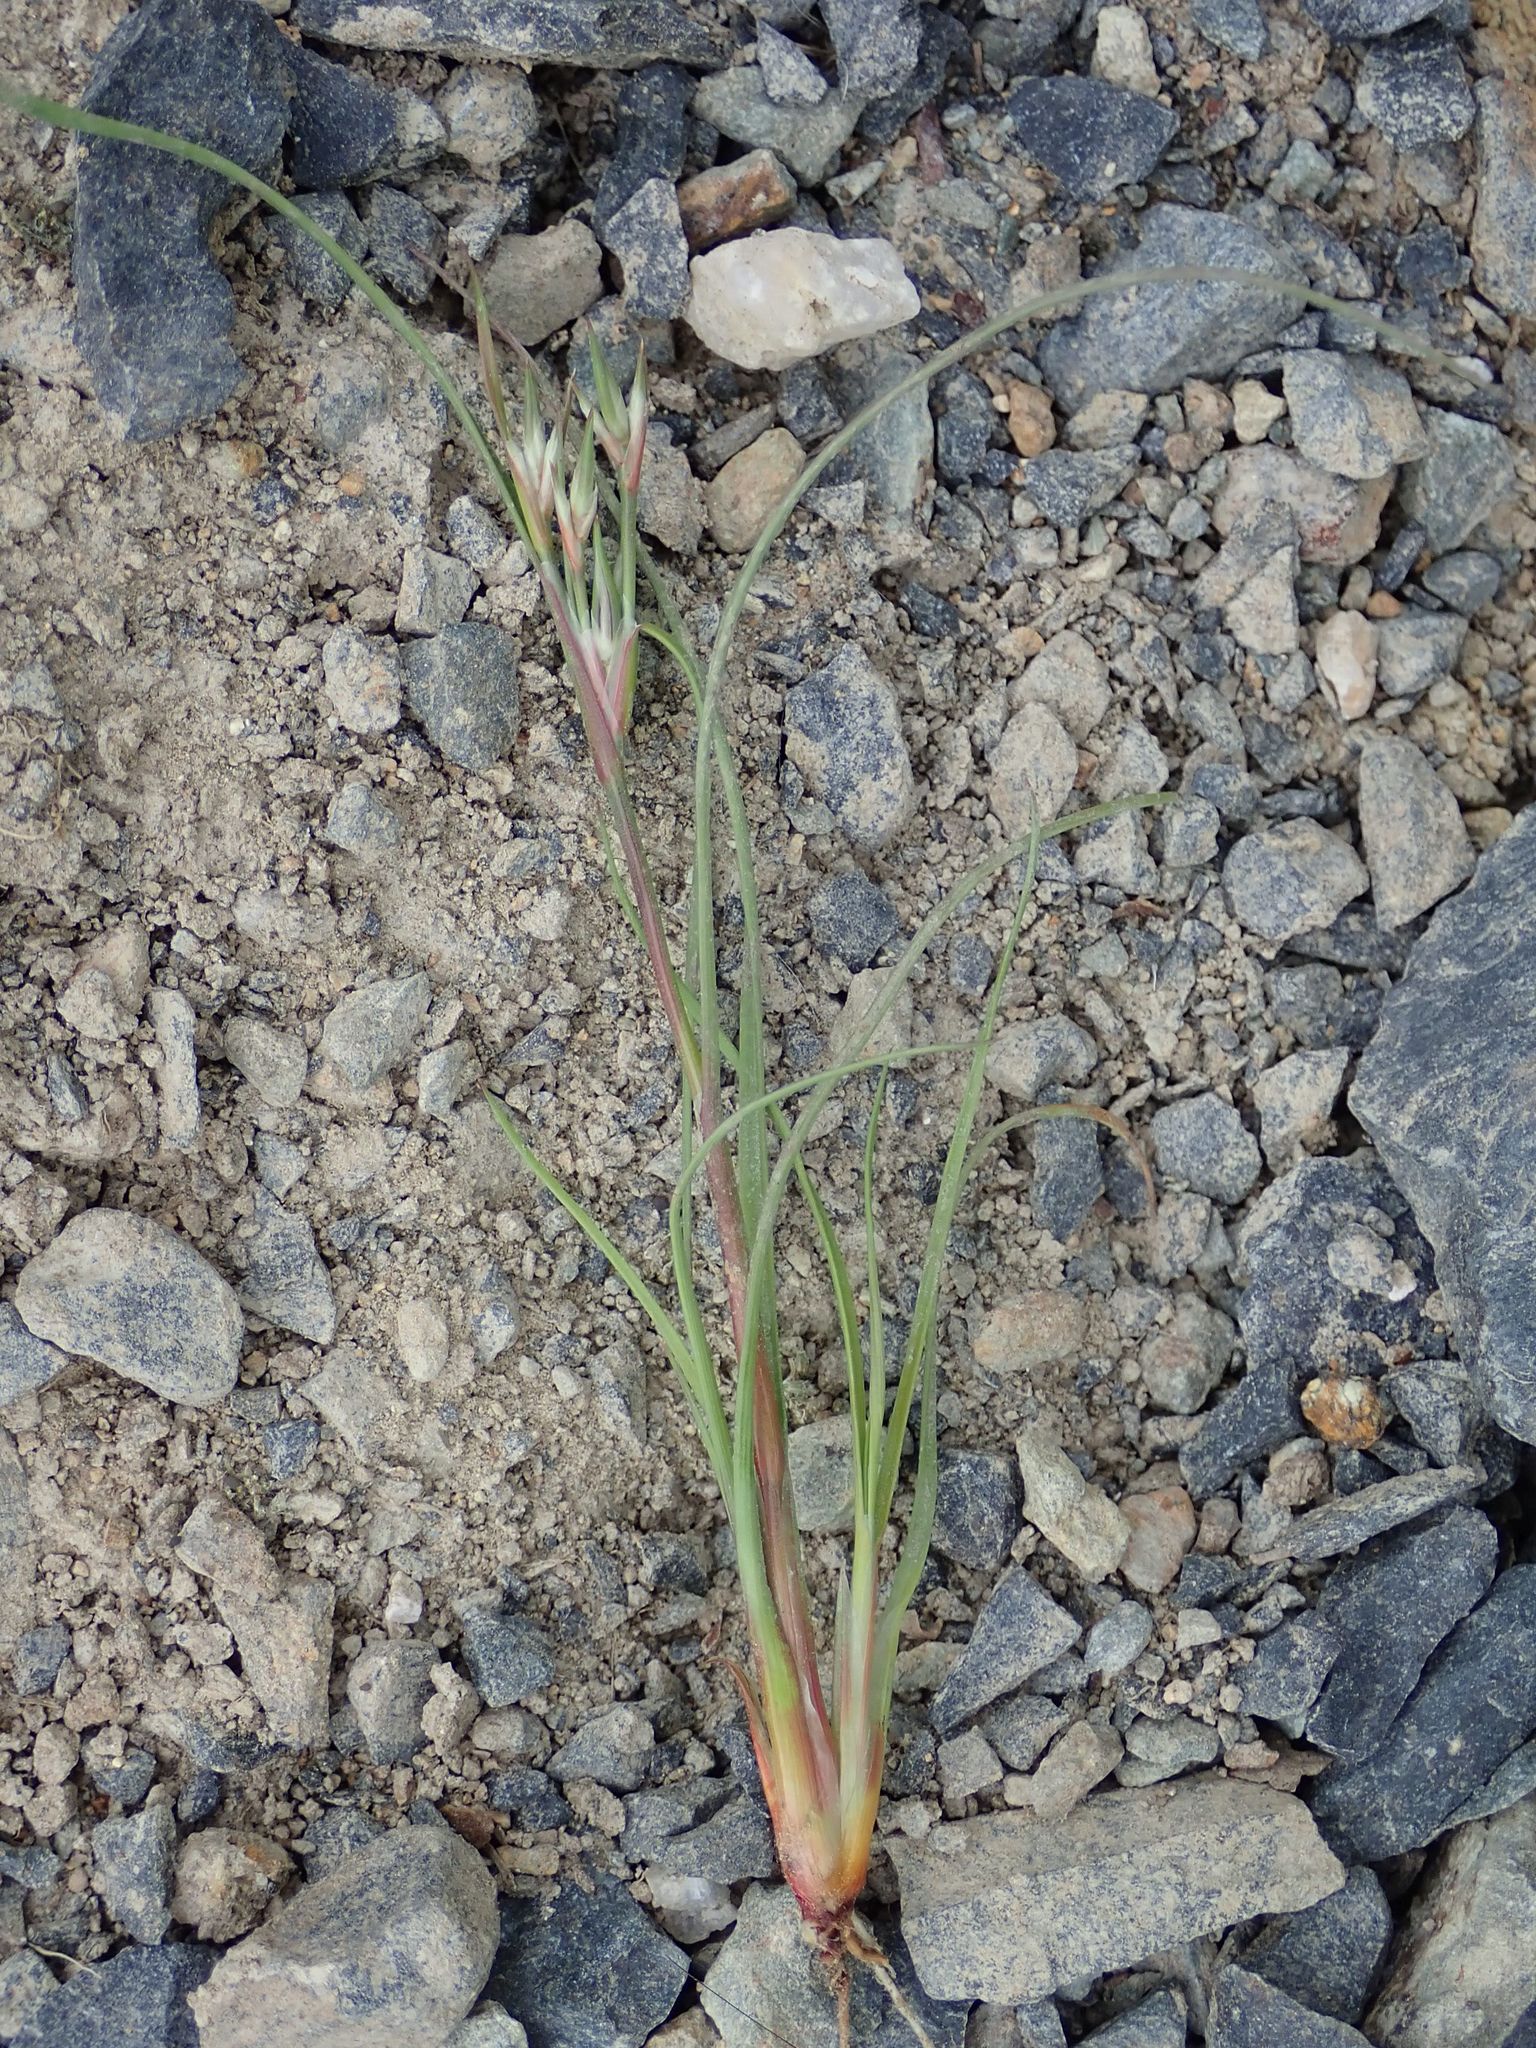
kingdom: Plantae
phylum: Tracheophyta
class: Liliopsida
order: Poales
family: Juncaceae
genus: Juncus
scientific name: Juncus bufonius
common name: Toad rush
